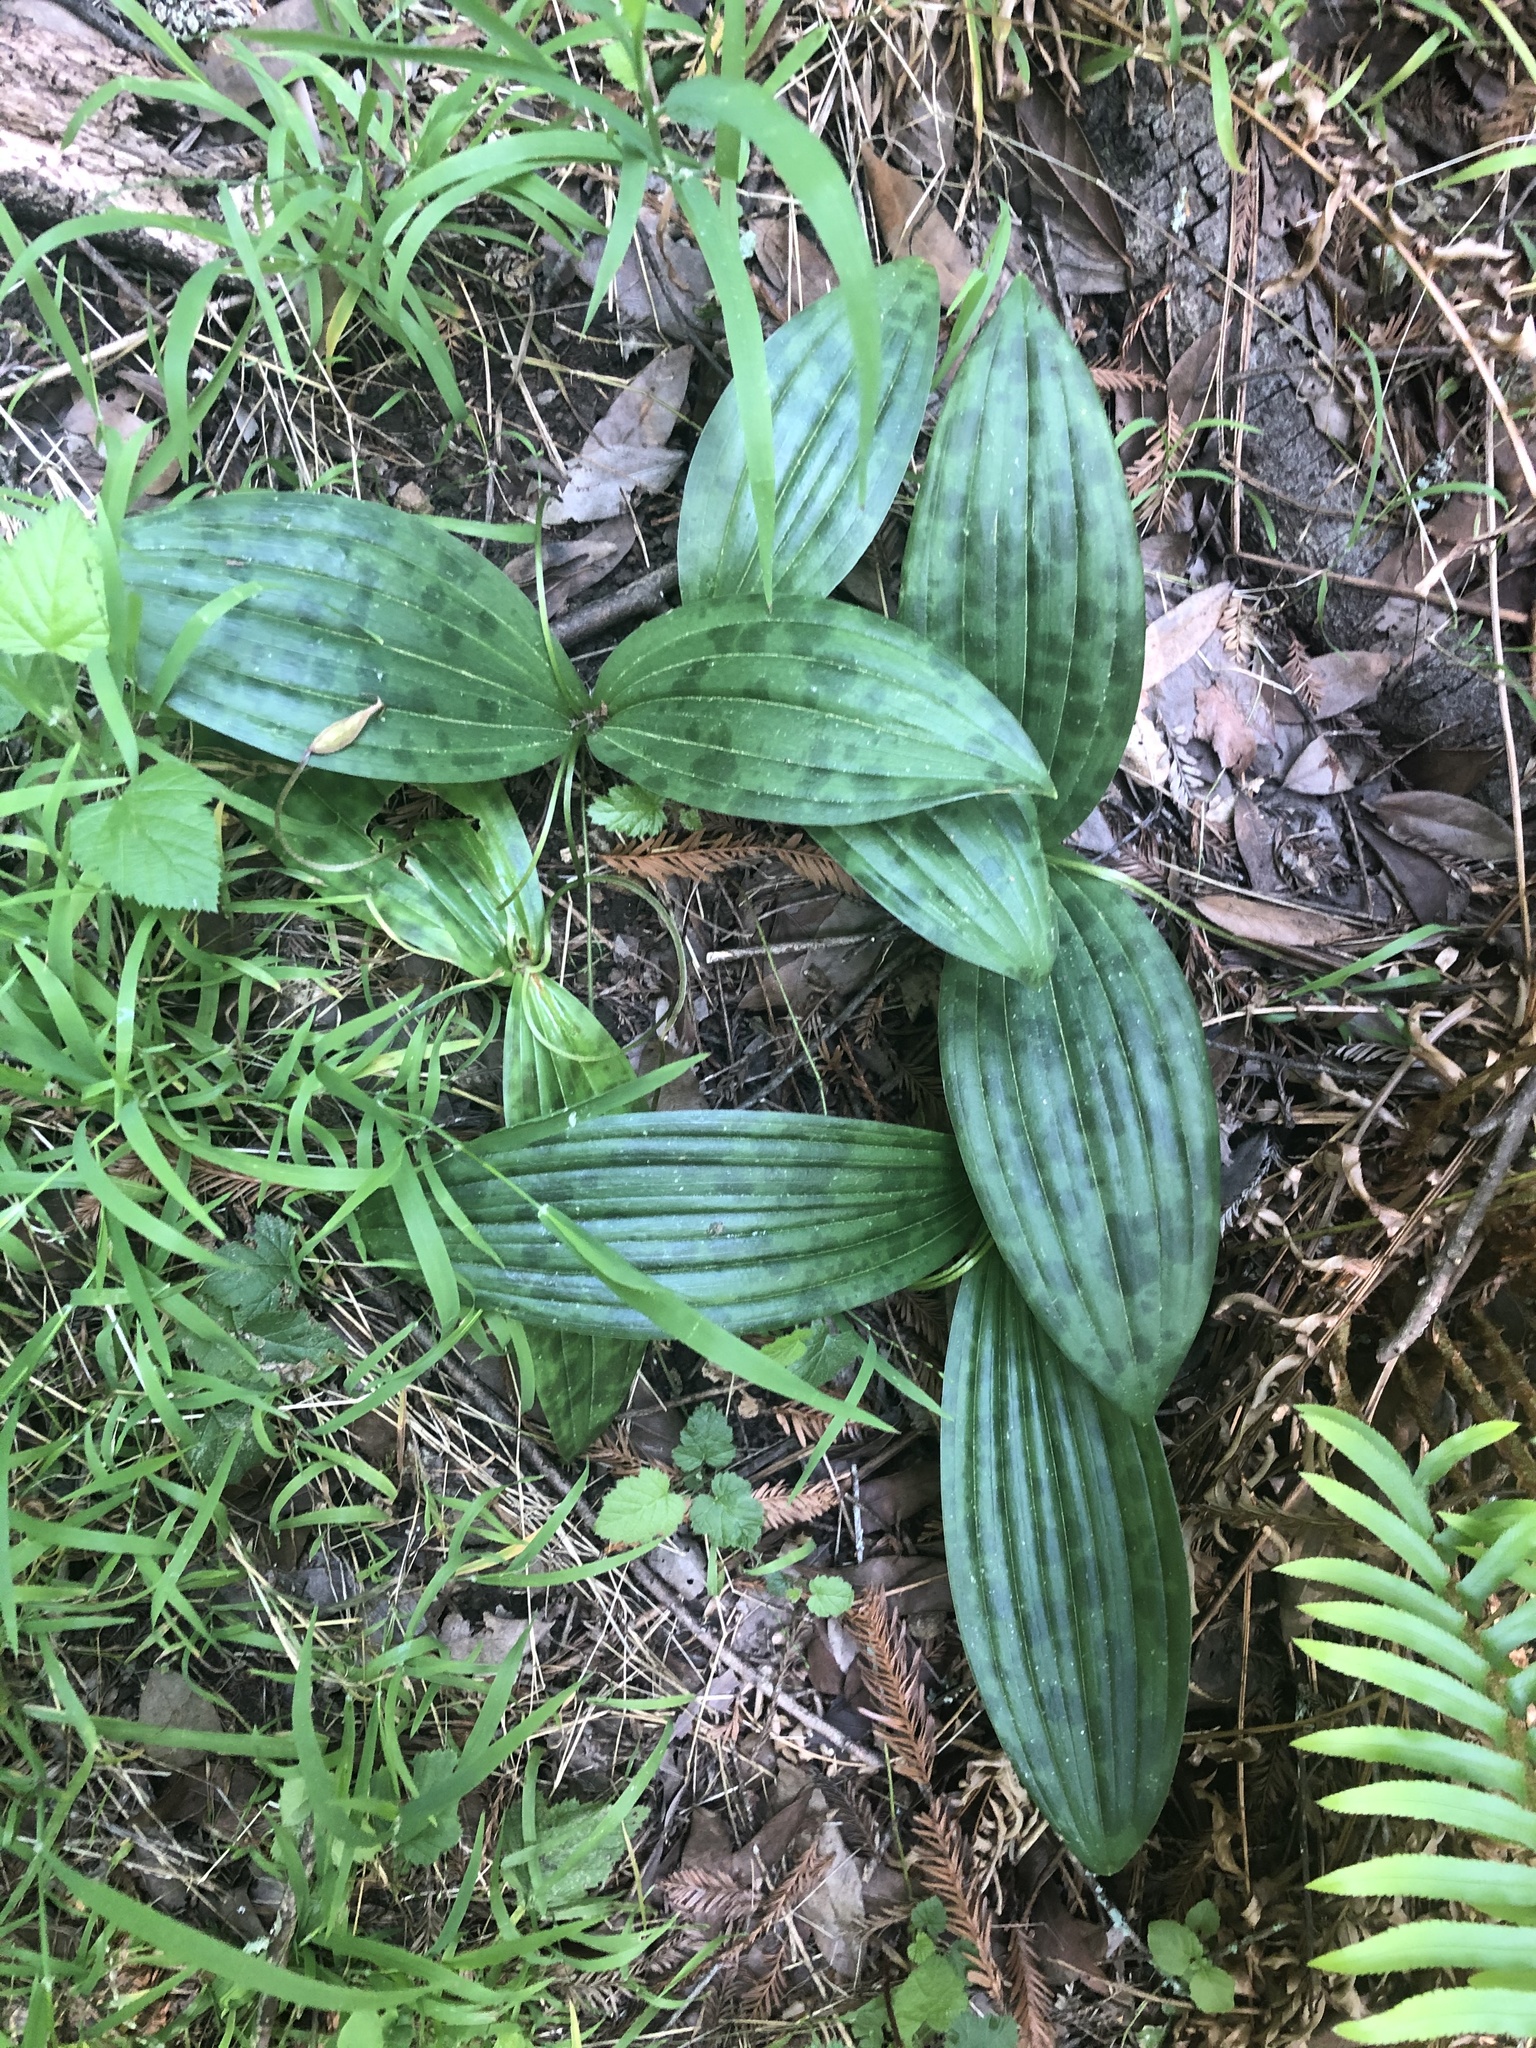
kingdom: Plantae
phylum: Tracheophyta
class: Liliopsida
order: Liliales
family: Liliaceae
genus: Scoliopus
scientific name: Scoliopus bigelovii
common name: Foetid adder's-tongue
